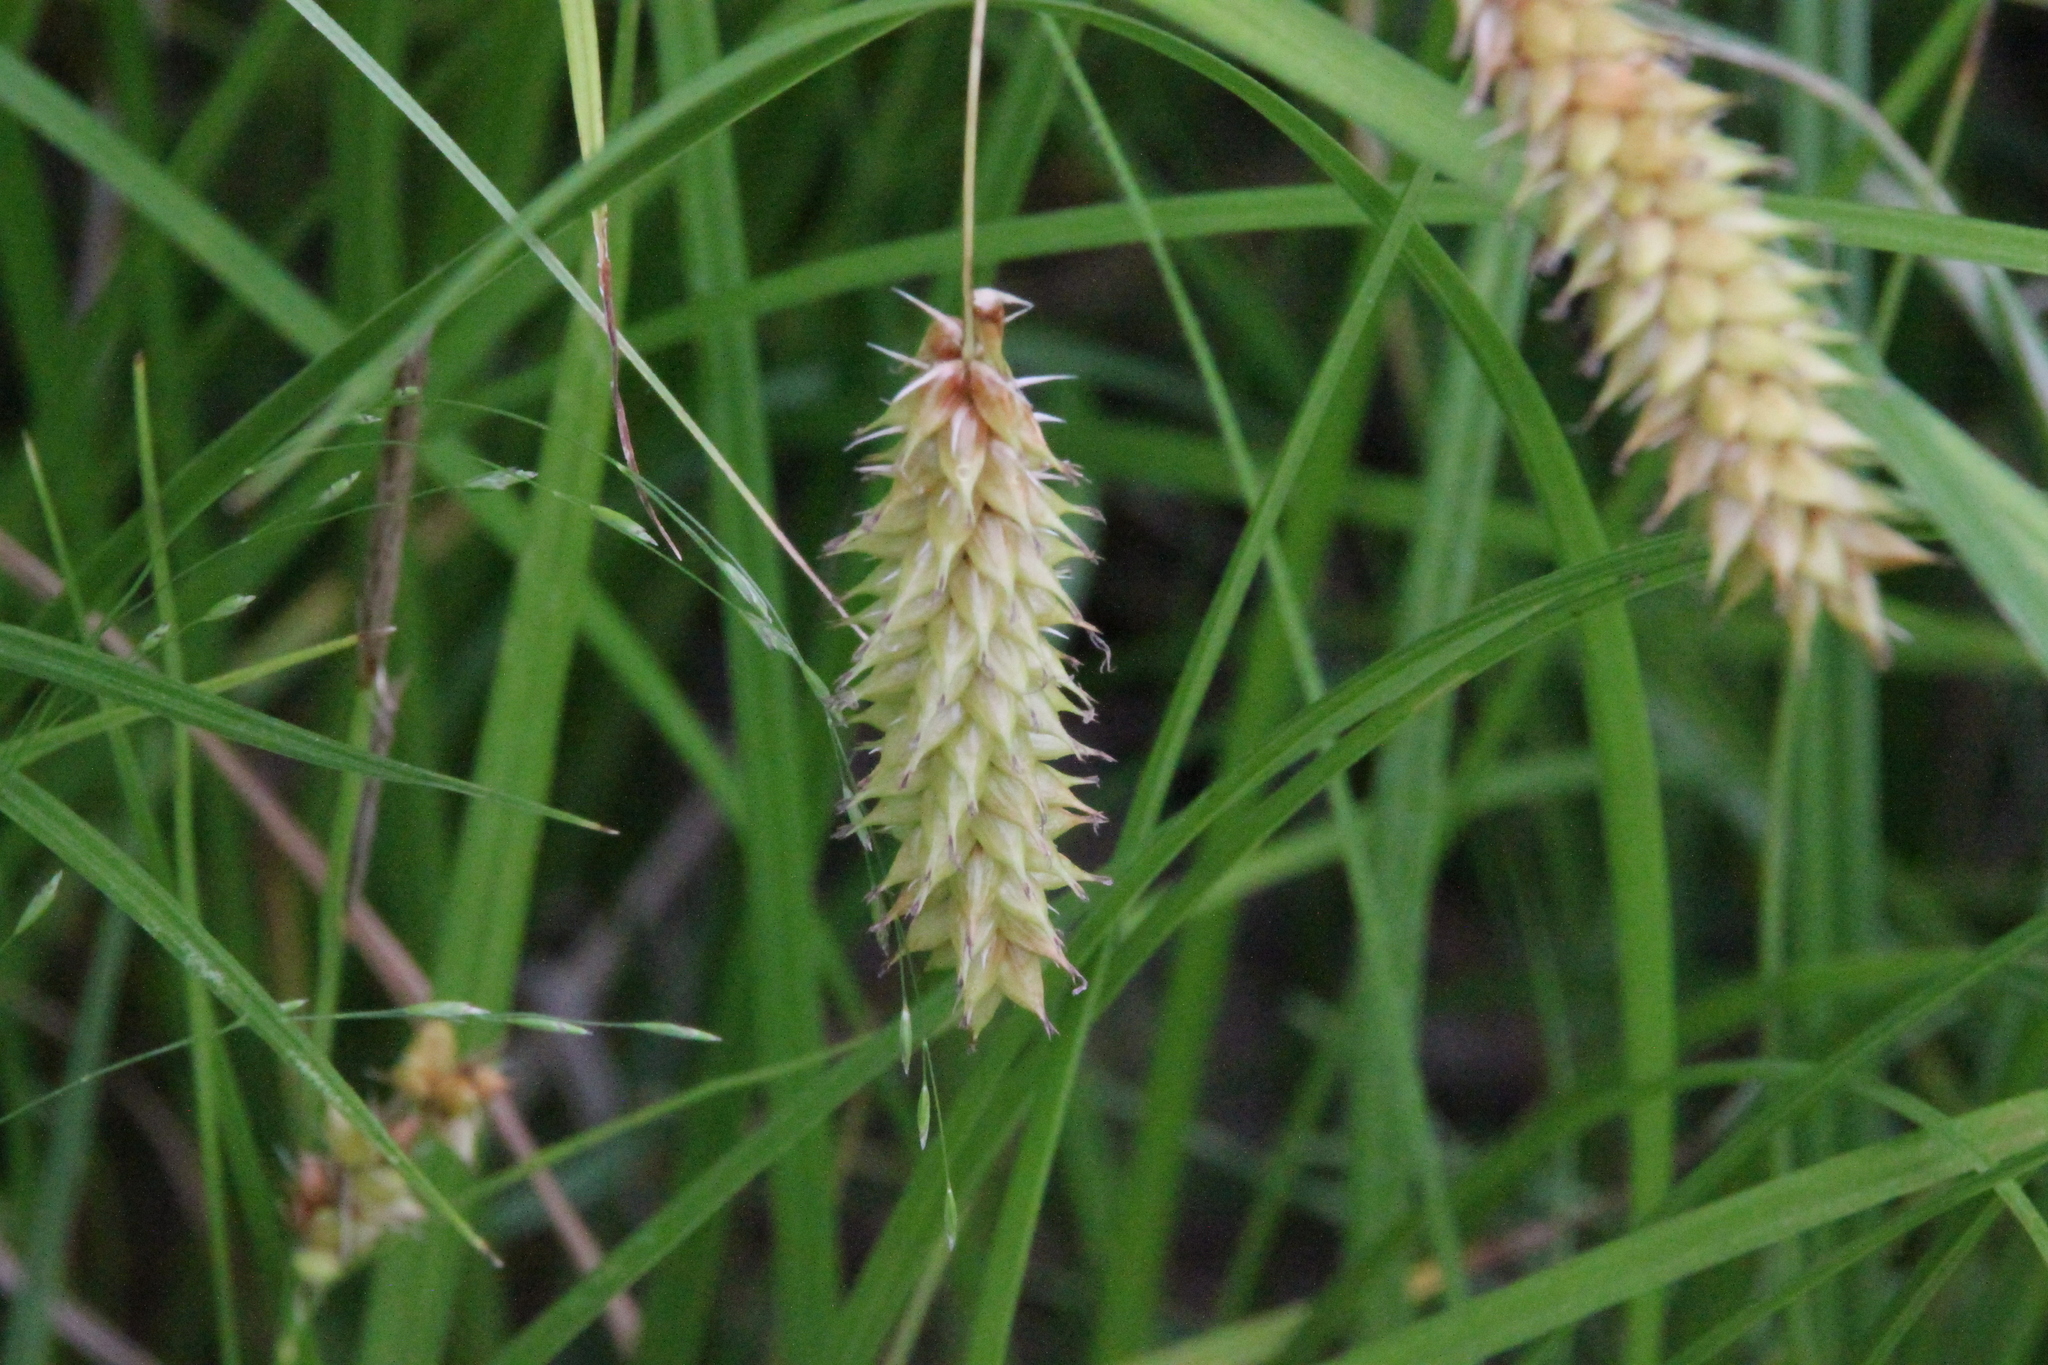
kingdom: Plantae
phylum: Tracheophyta
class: Liliopsida
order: Poales
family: Cyperaceae
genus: Carex
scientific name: Carex vesicaria
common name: Bladder-sedge
